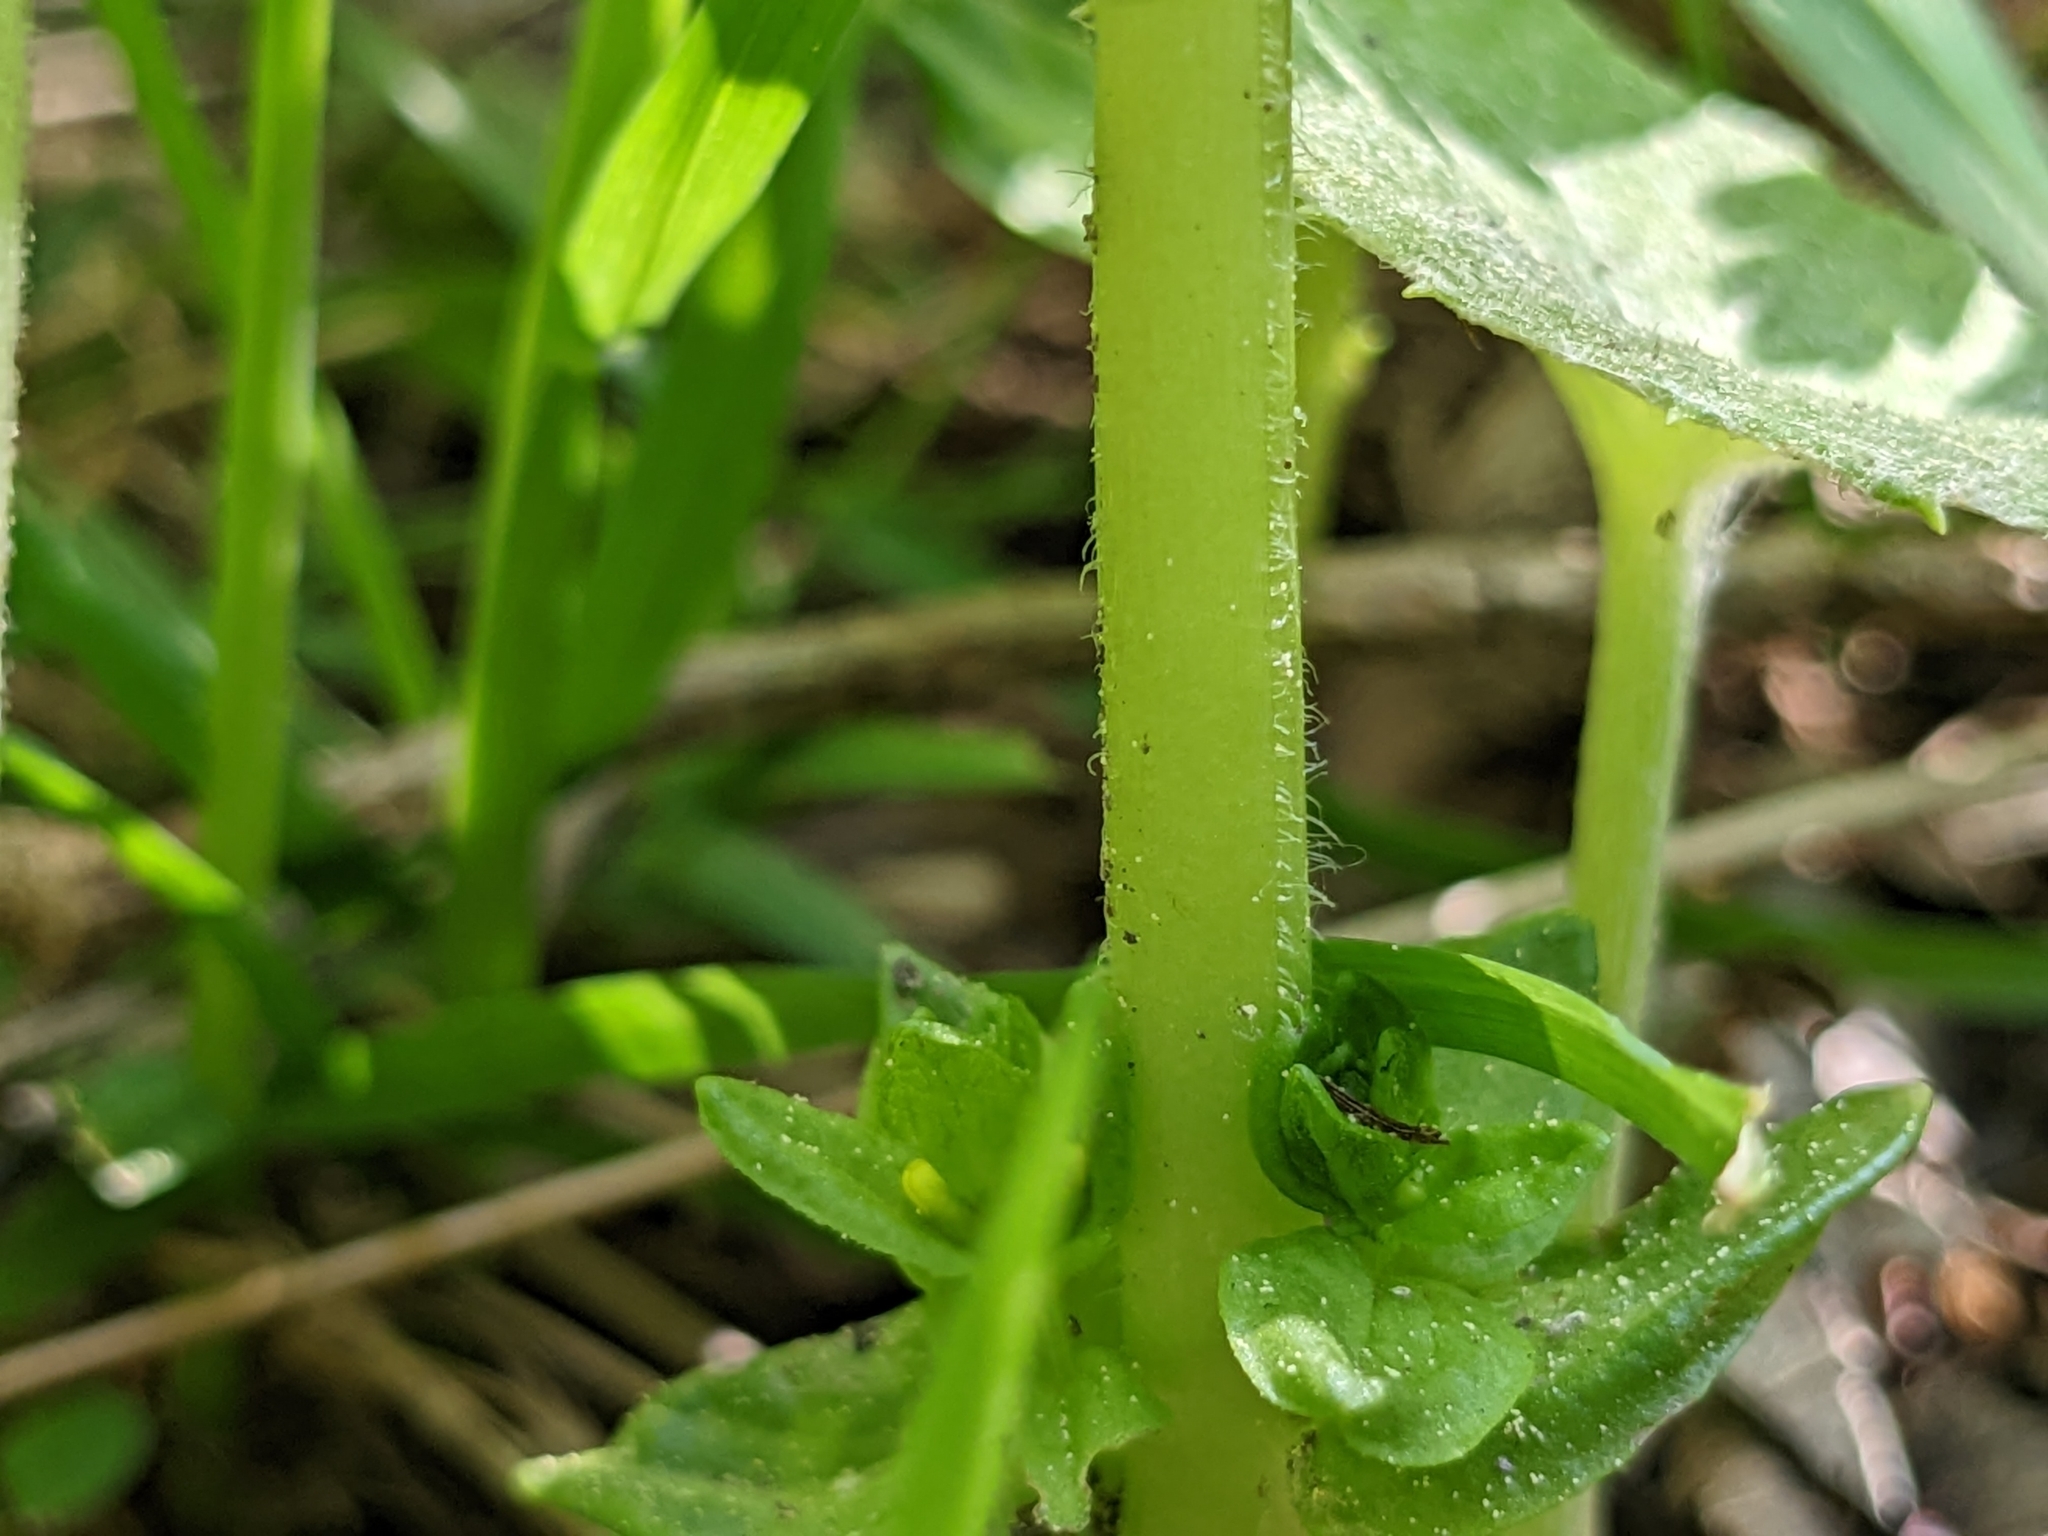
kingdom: Plantae
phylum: Tracheophyta
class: Magnoliopsida
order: Lamiales
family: Orobanchaceae
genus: Tozzia
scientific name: Tozzia alpina
